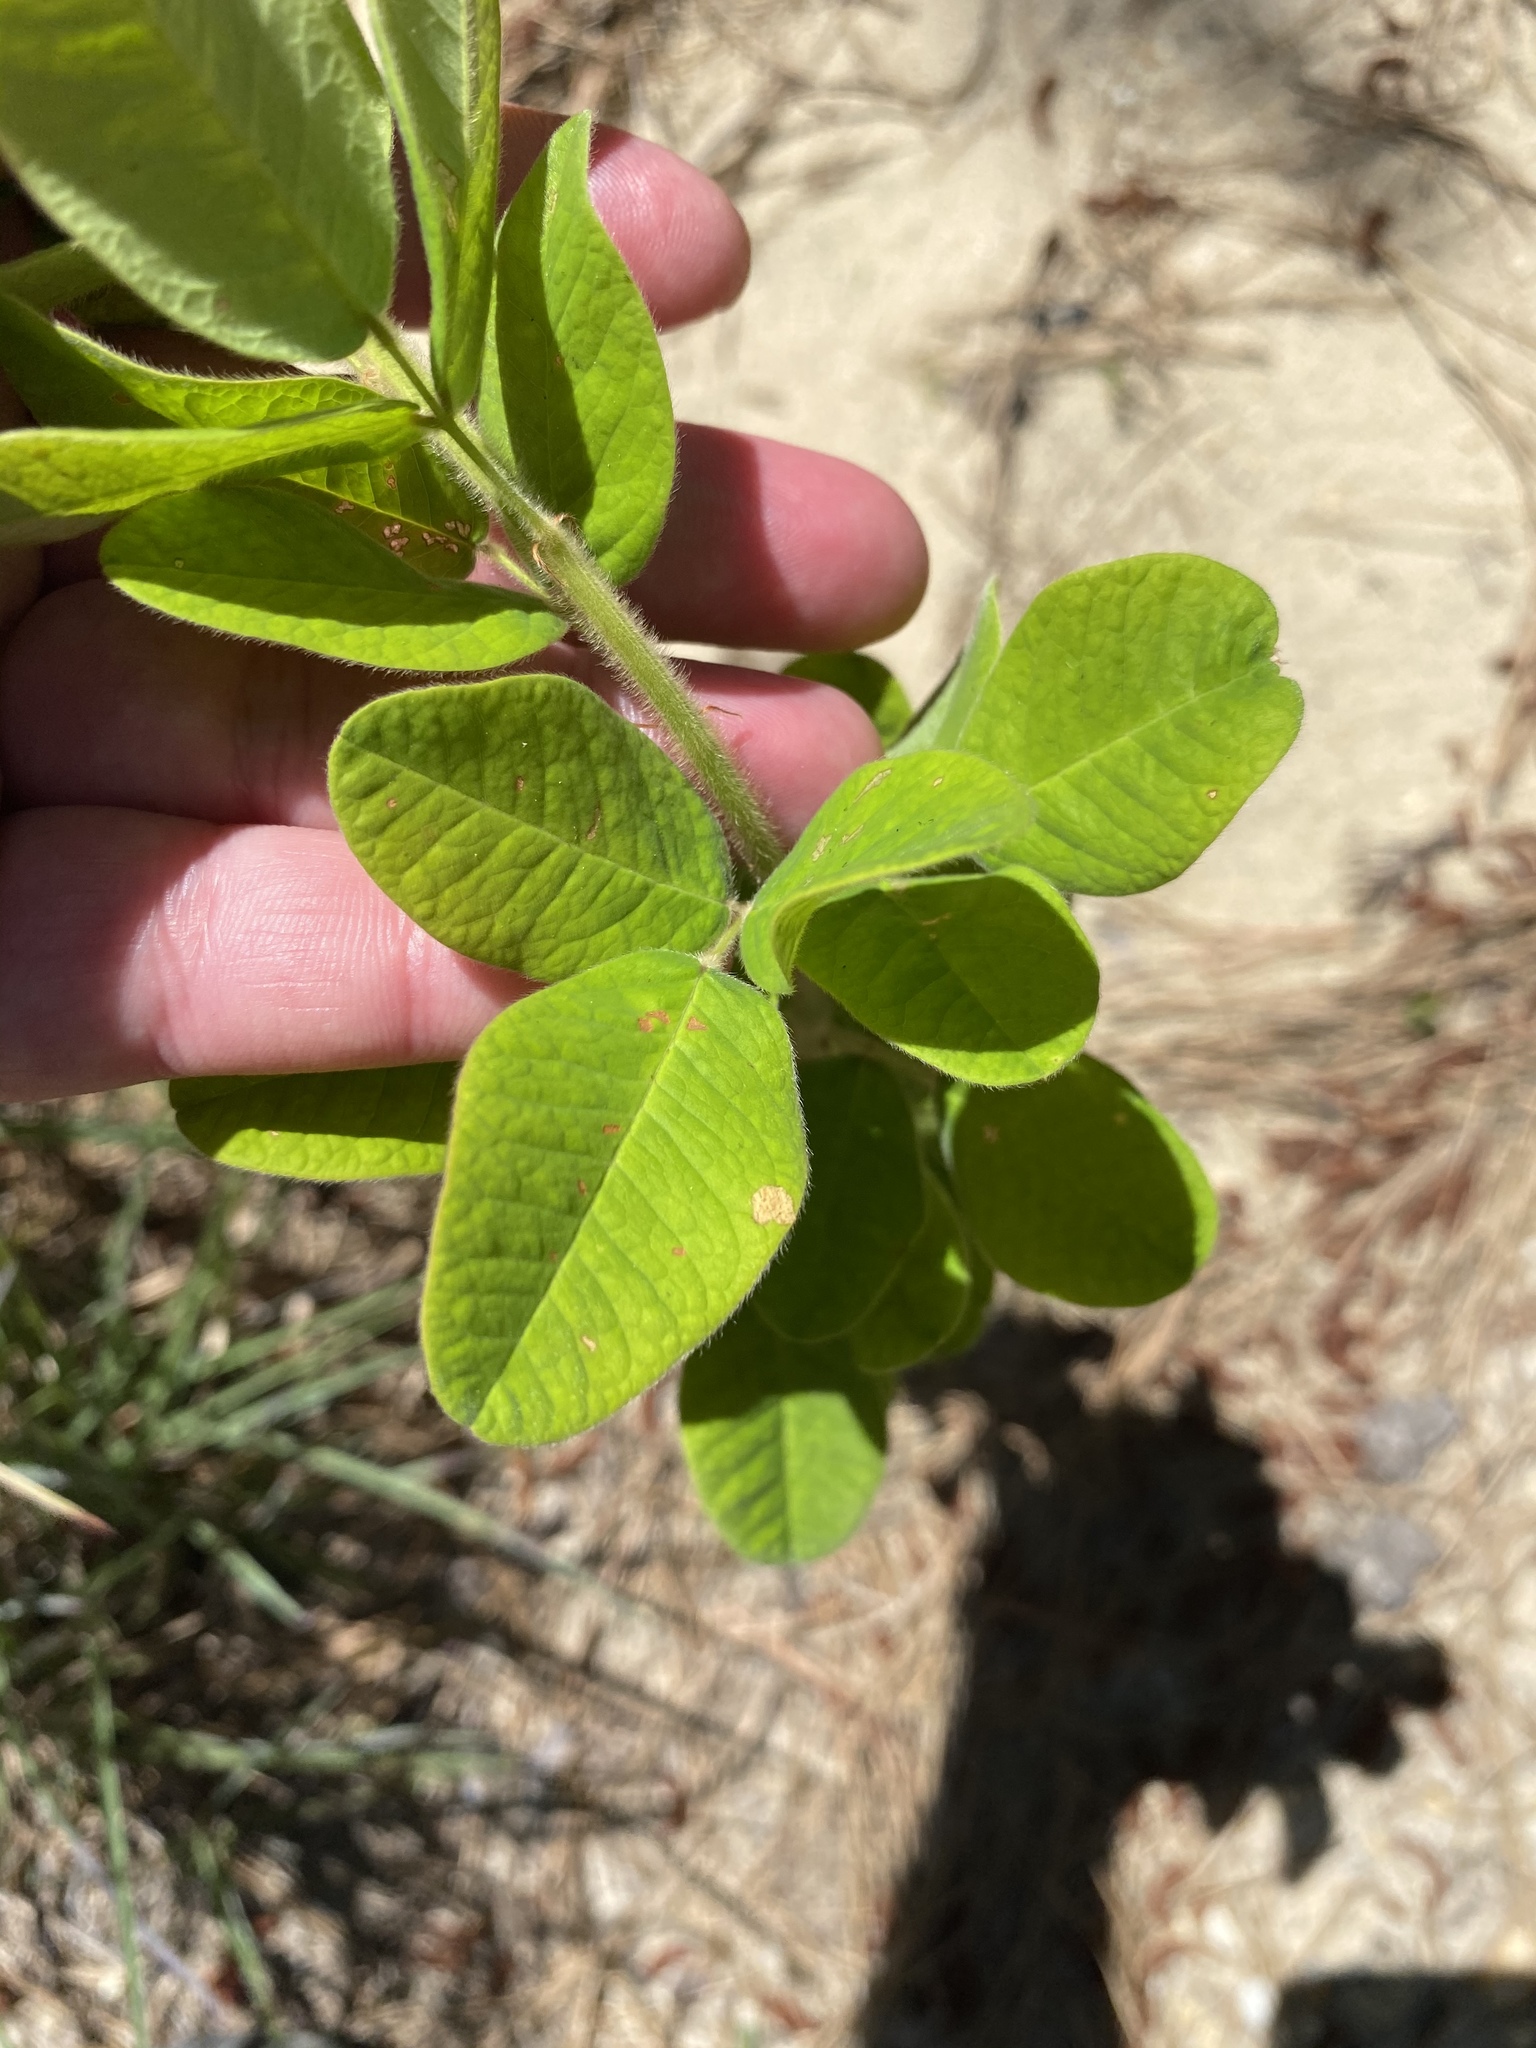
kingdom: Plantae
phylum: Tracheophyta
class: Magnoliopsida
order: Fabales
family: Fabaceae
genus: Lespedeza
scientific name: Lespedeza hirta
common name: Hairy lespedeza
